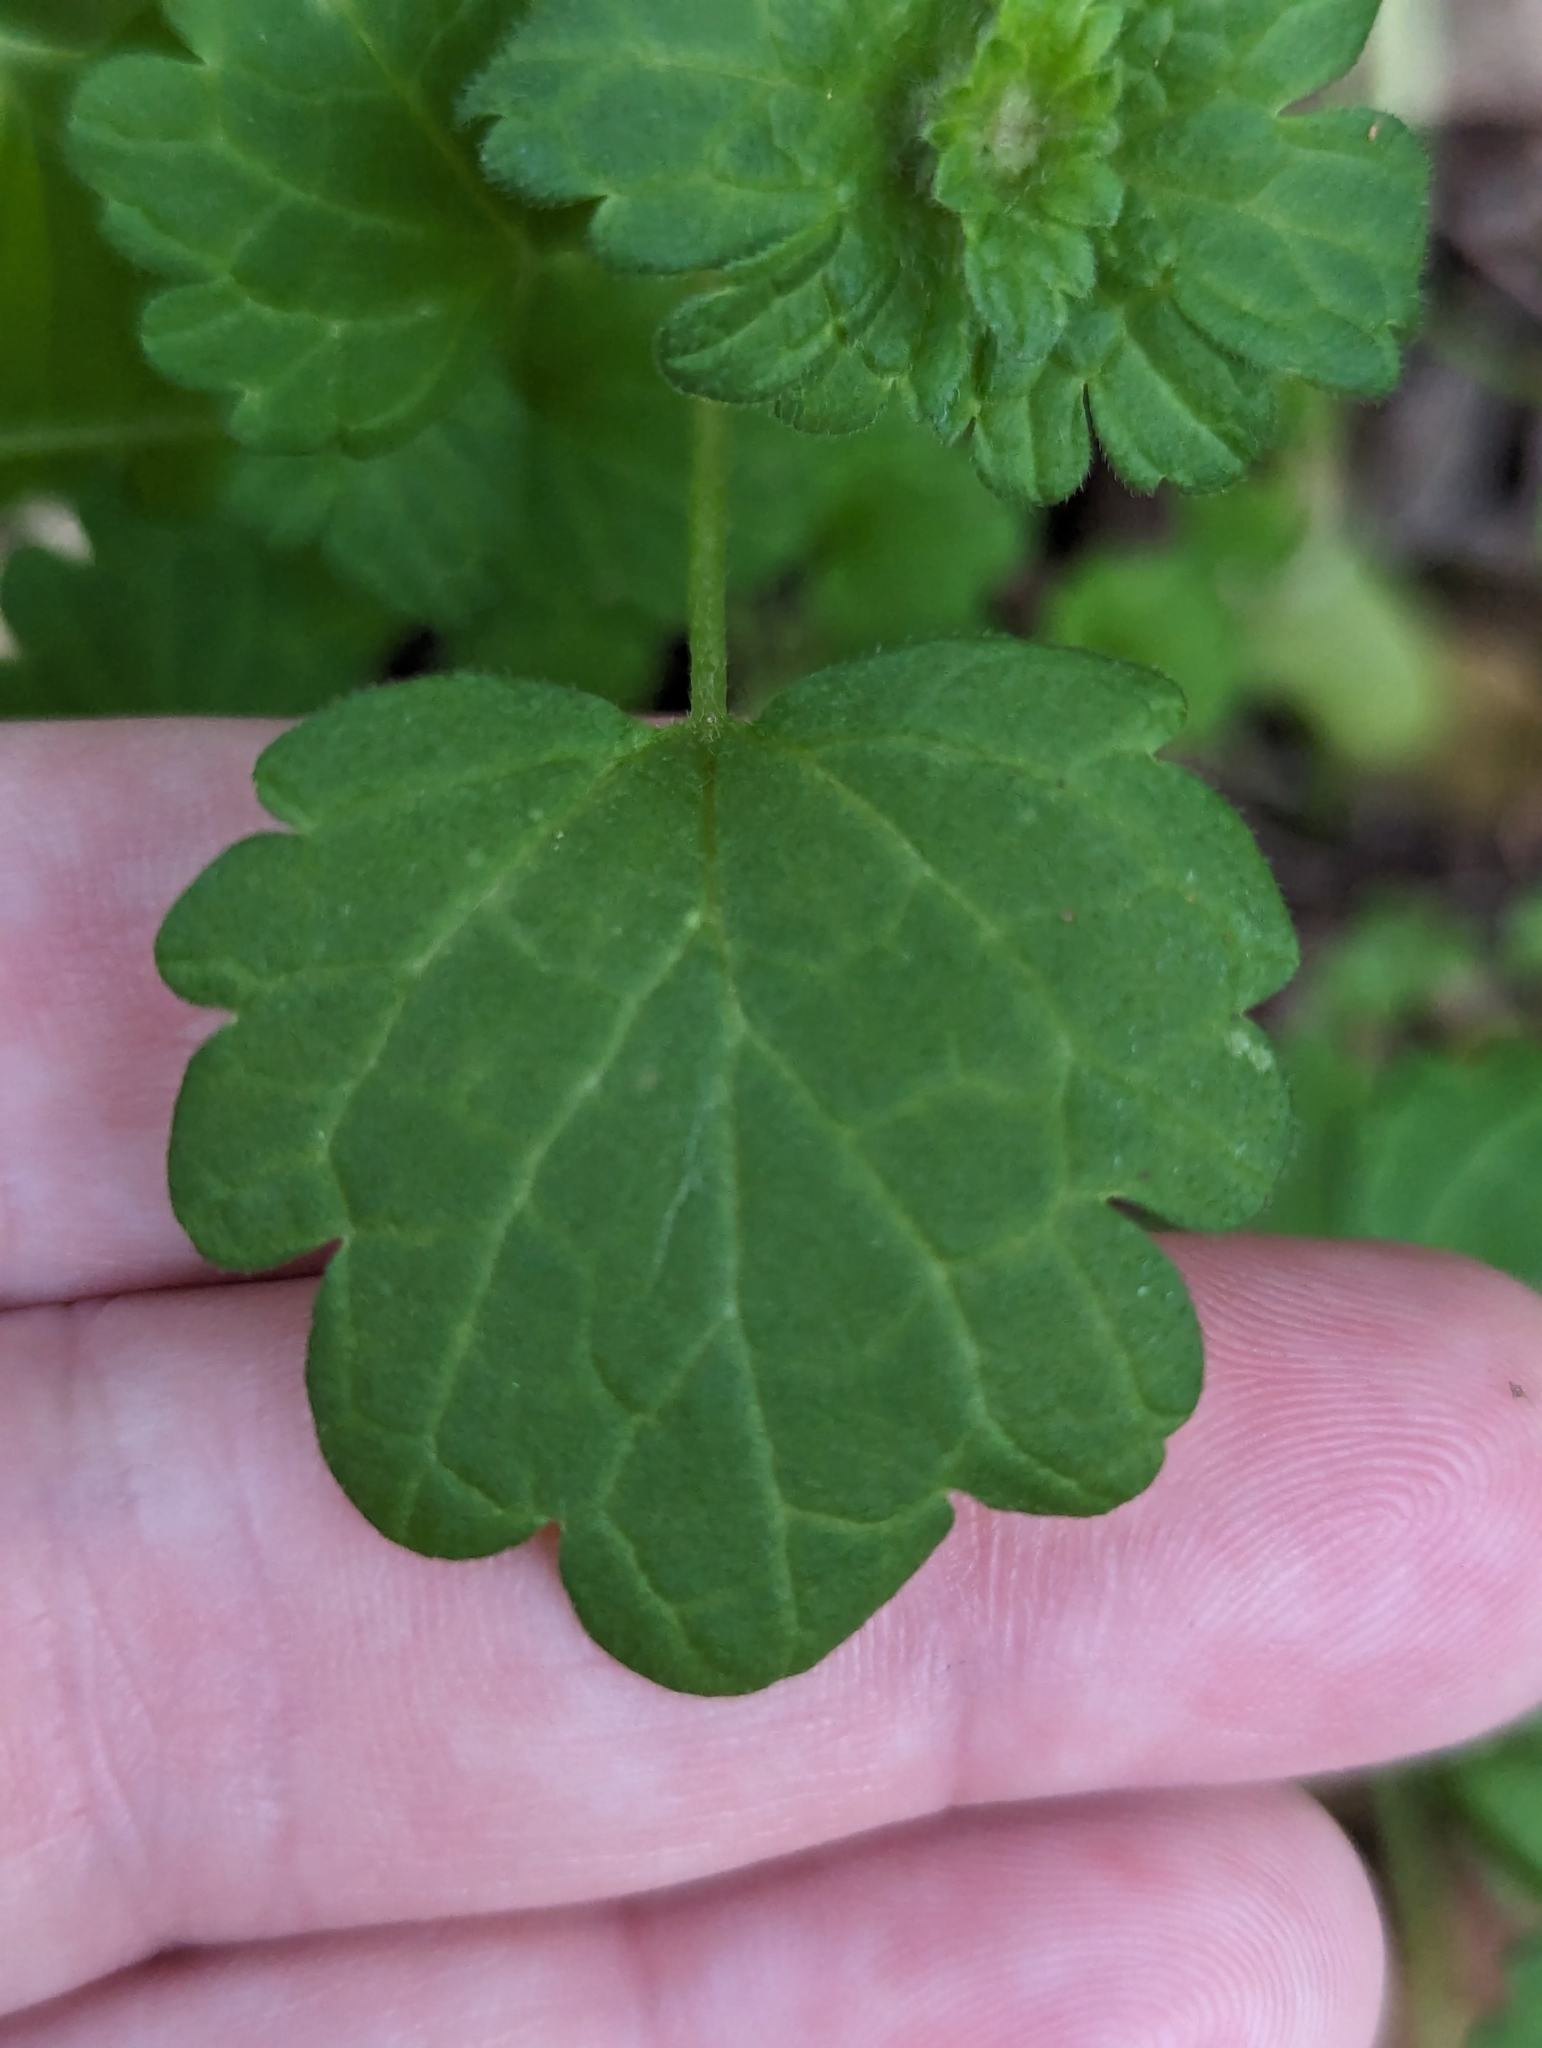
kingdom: Plantae
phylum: Tracheophyta
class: Magnoliopsida
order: Lamiales
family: Lamiaceae
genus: Lamium
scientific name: Lamium amplexicaule
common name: Henbit dead-nettle
